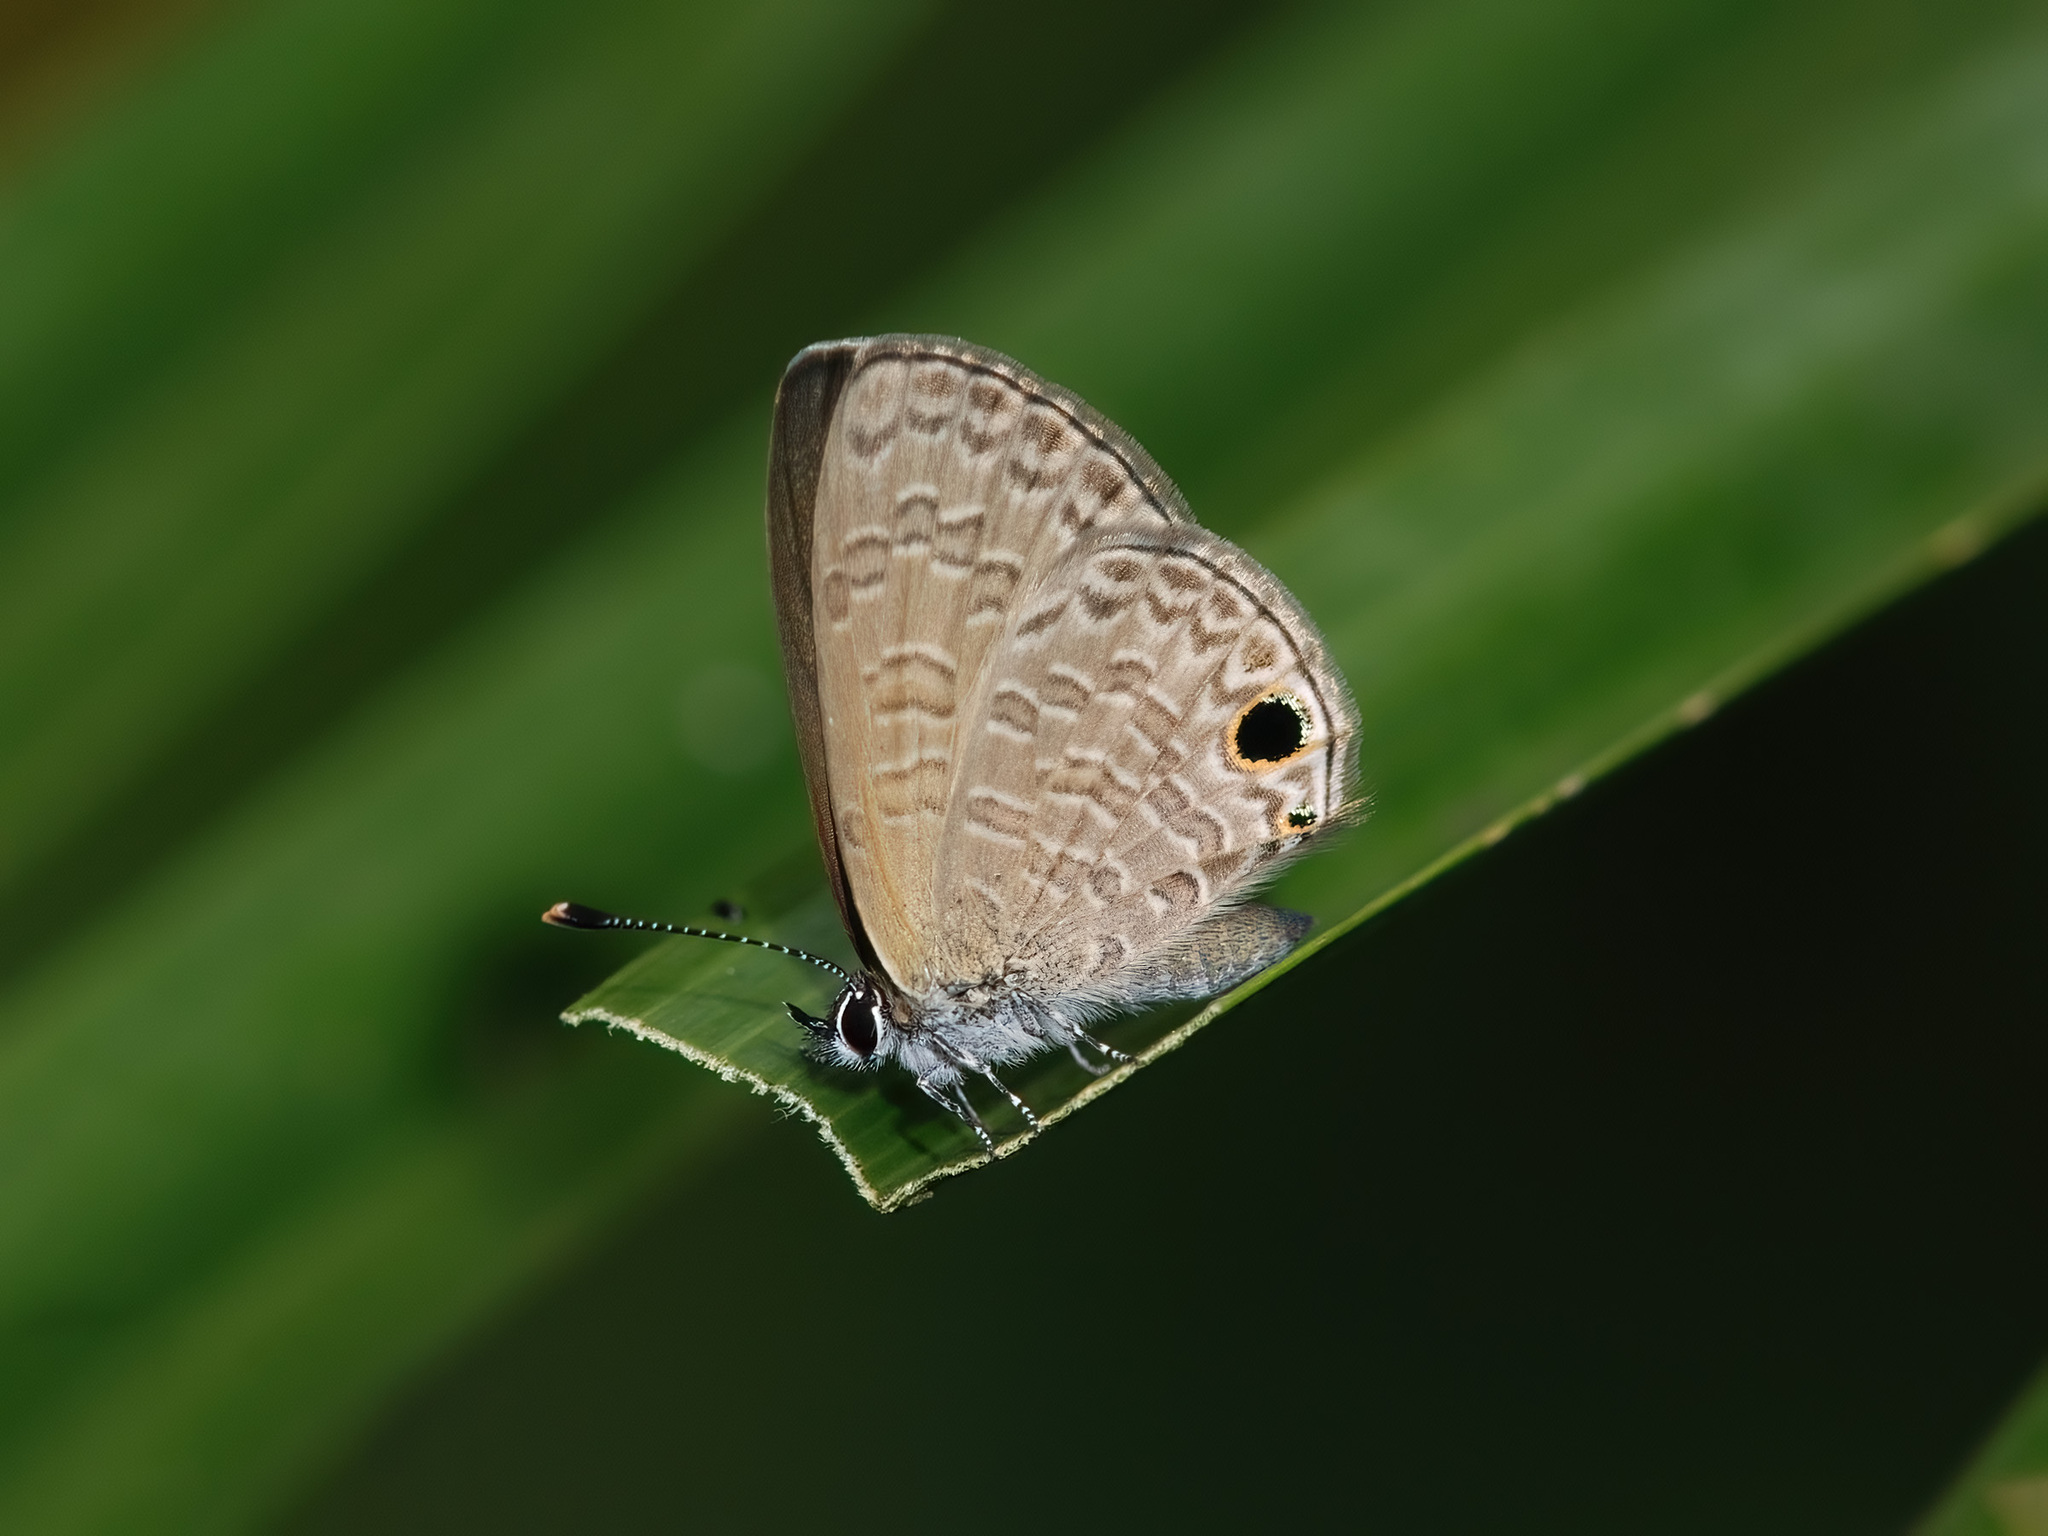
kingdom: Animalia
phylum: Arthropoda
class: Insecta
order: Lepidoptera
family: Lycaenidae
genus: Prosotas
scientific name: Prosotas dubiosa
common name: Tailless lineblue
